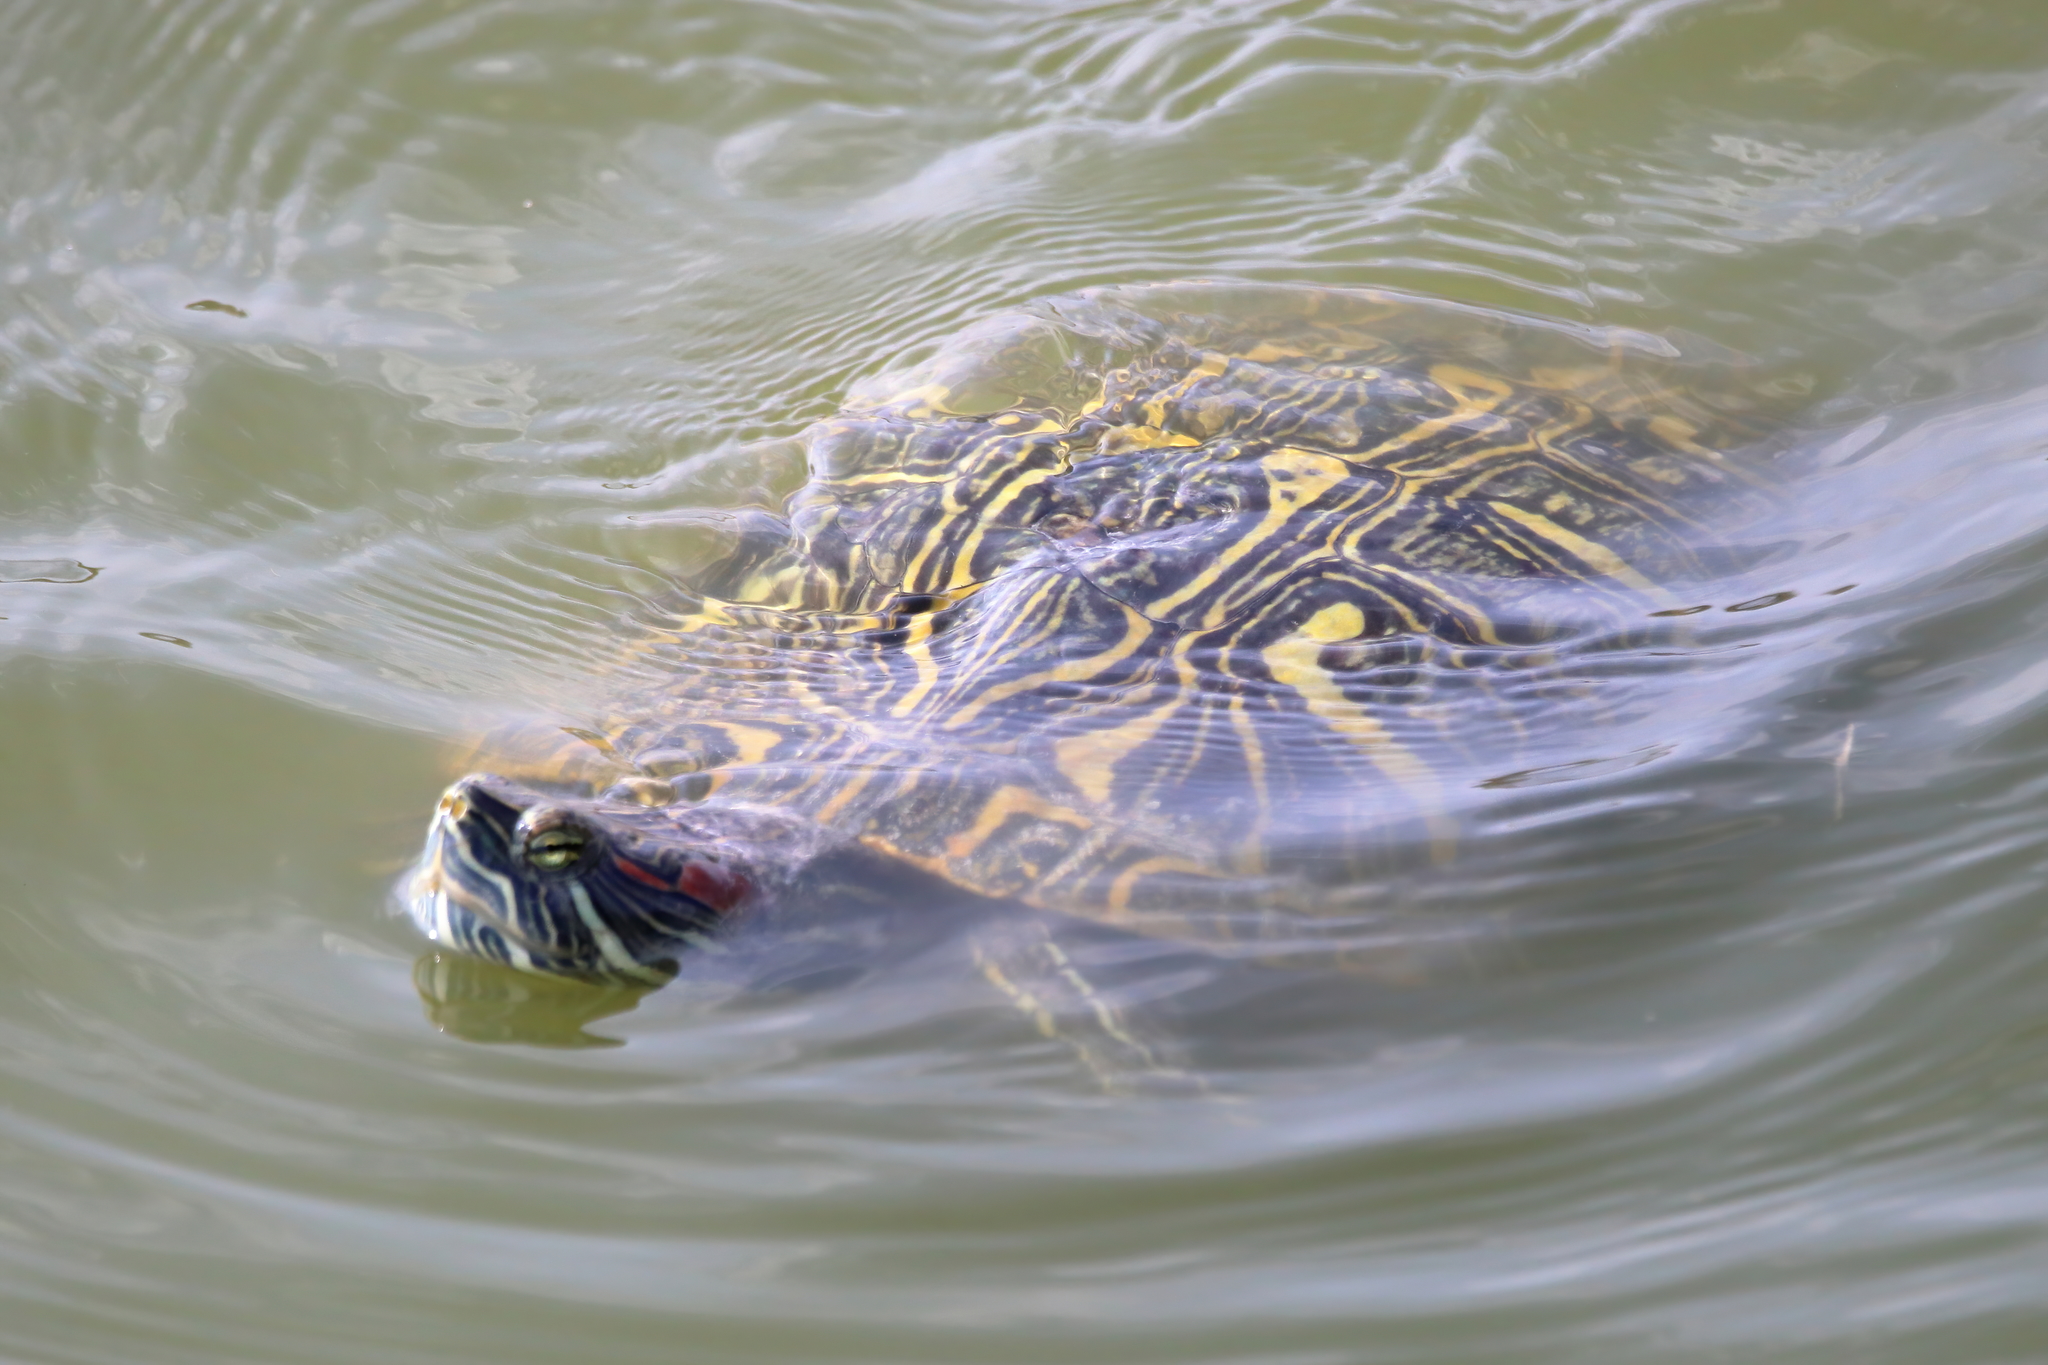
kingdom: Animalia
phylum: Chordata
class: Testudines
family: Emydidae
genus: Trachemys
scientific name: Trachemys scripta
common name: Slider
